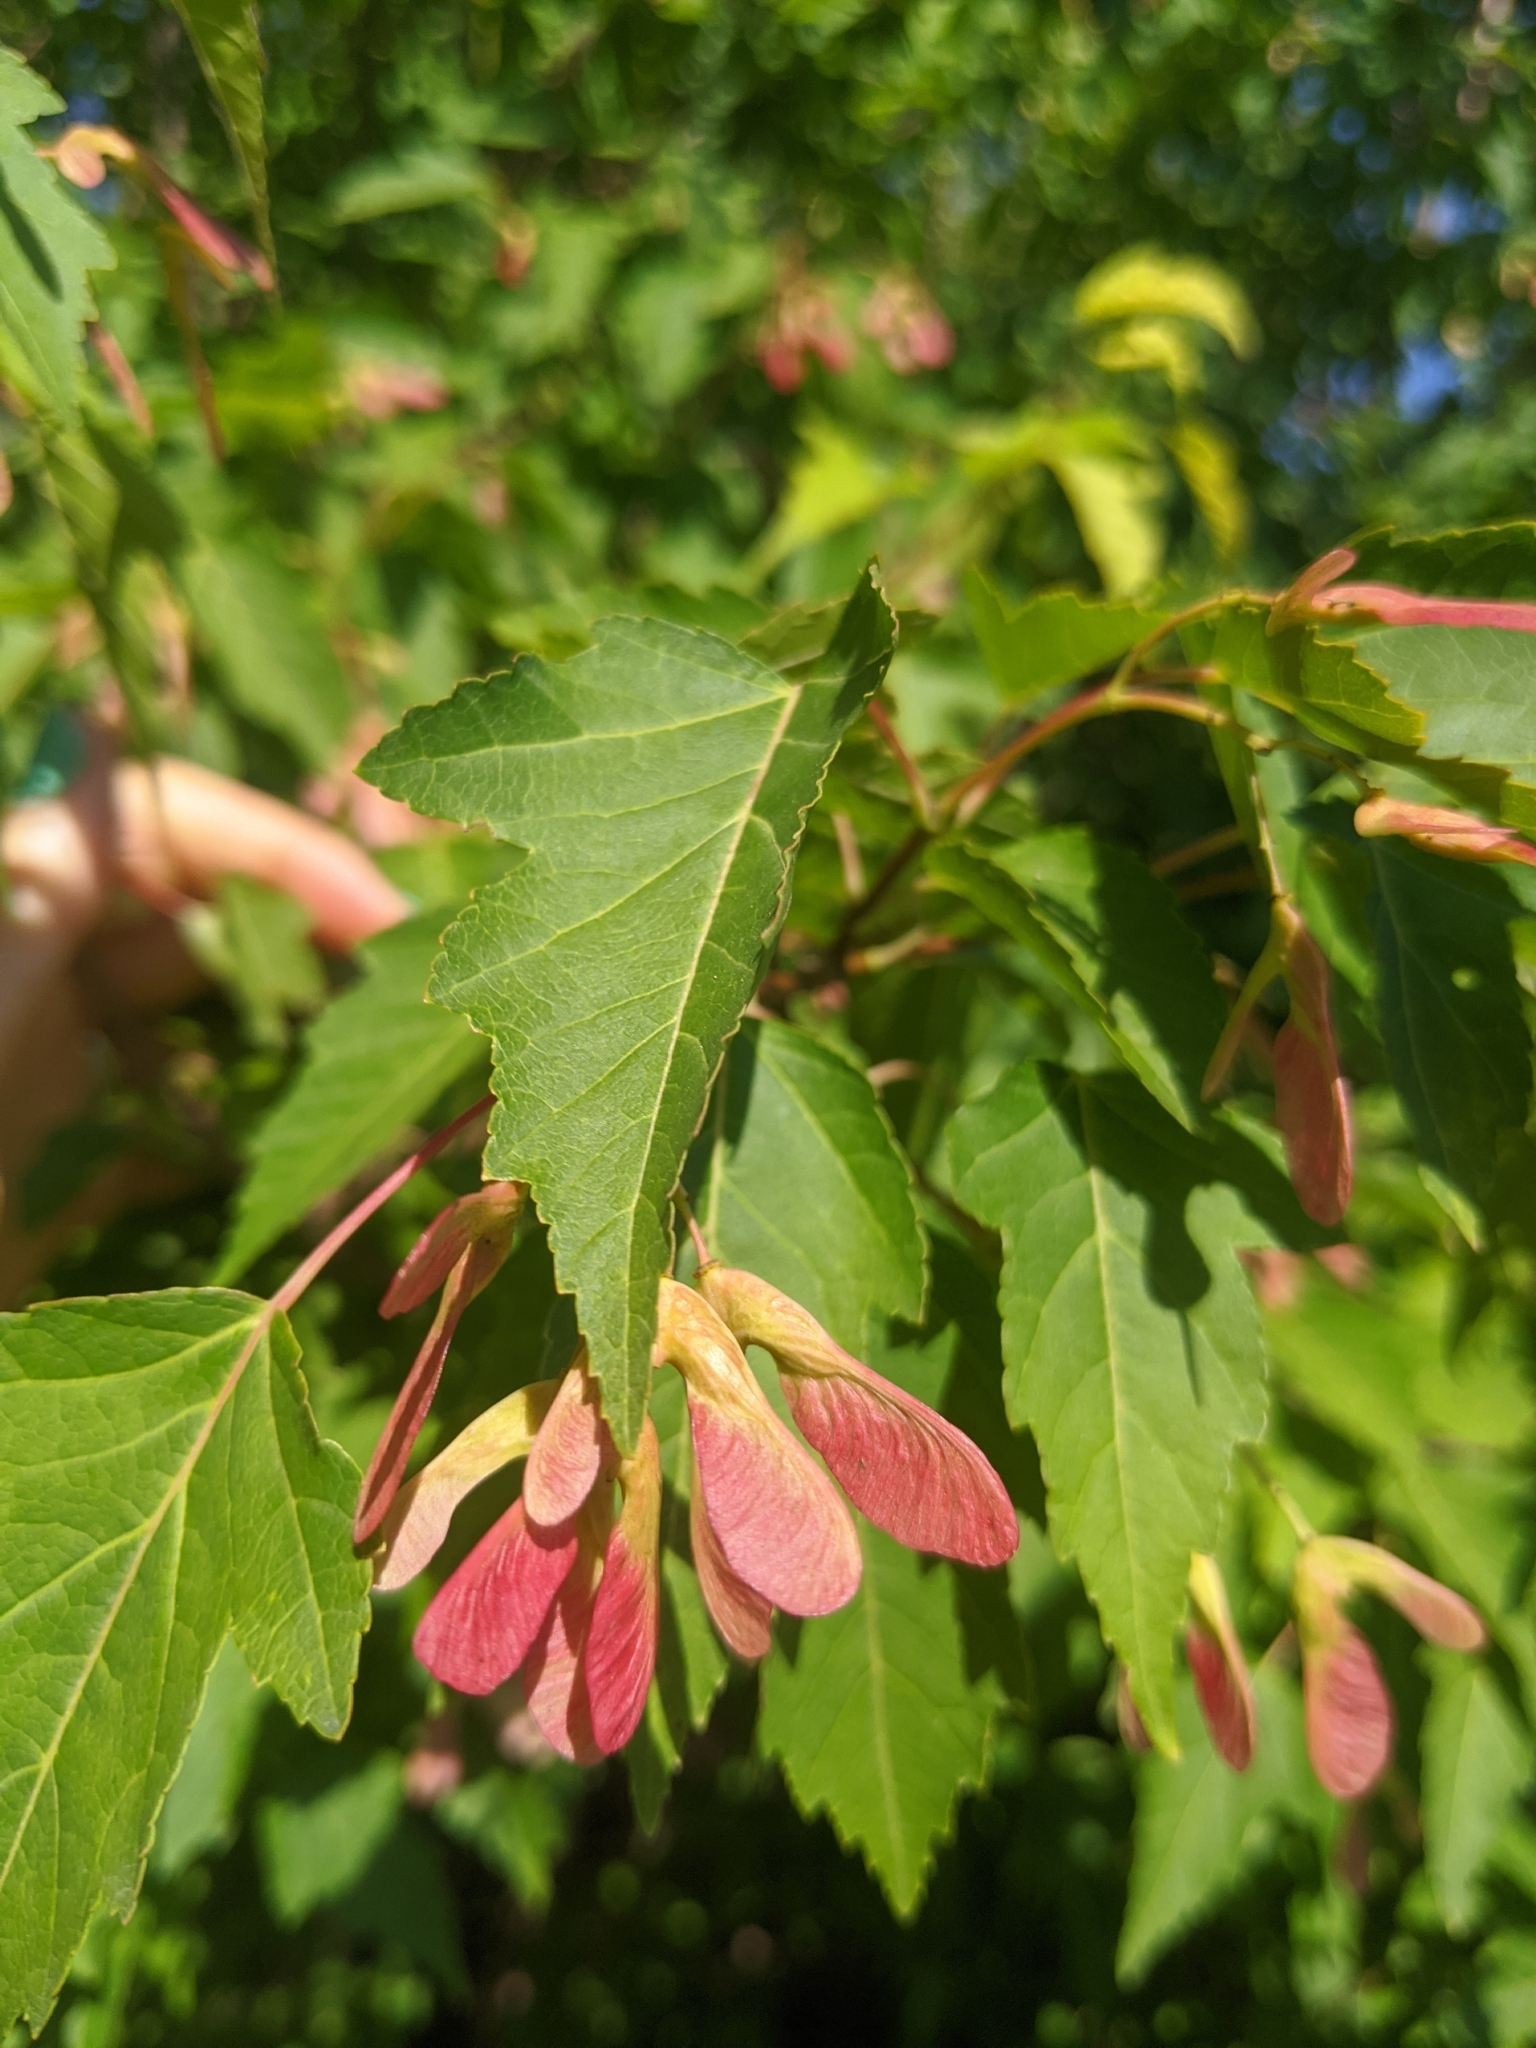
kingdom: Plantae
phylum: Tracheophyta
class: Magnoliopsida
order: Sapindales
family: Sapindaceae
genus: Acer
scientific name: Acer tataricum
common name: Tartar maple
